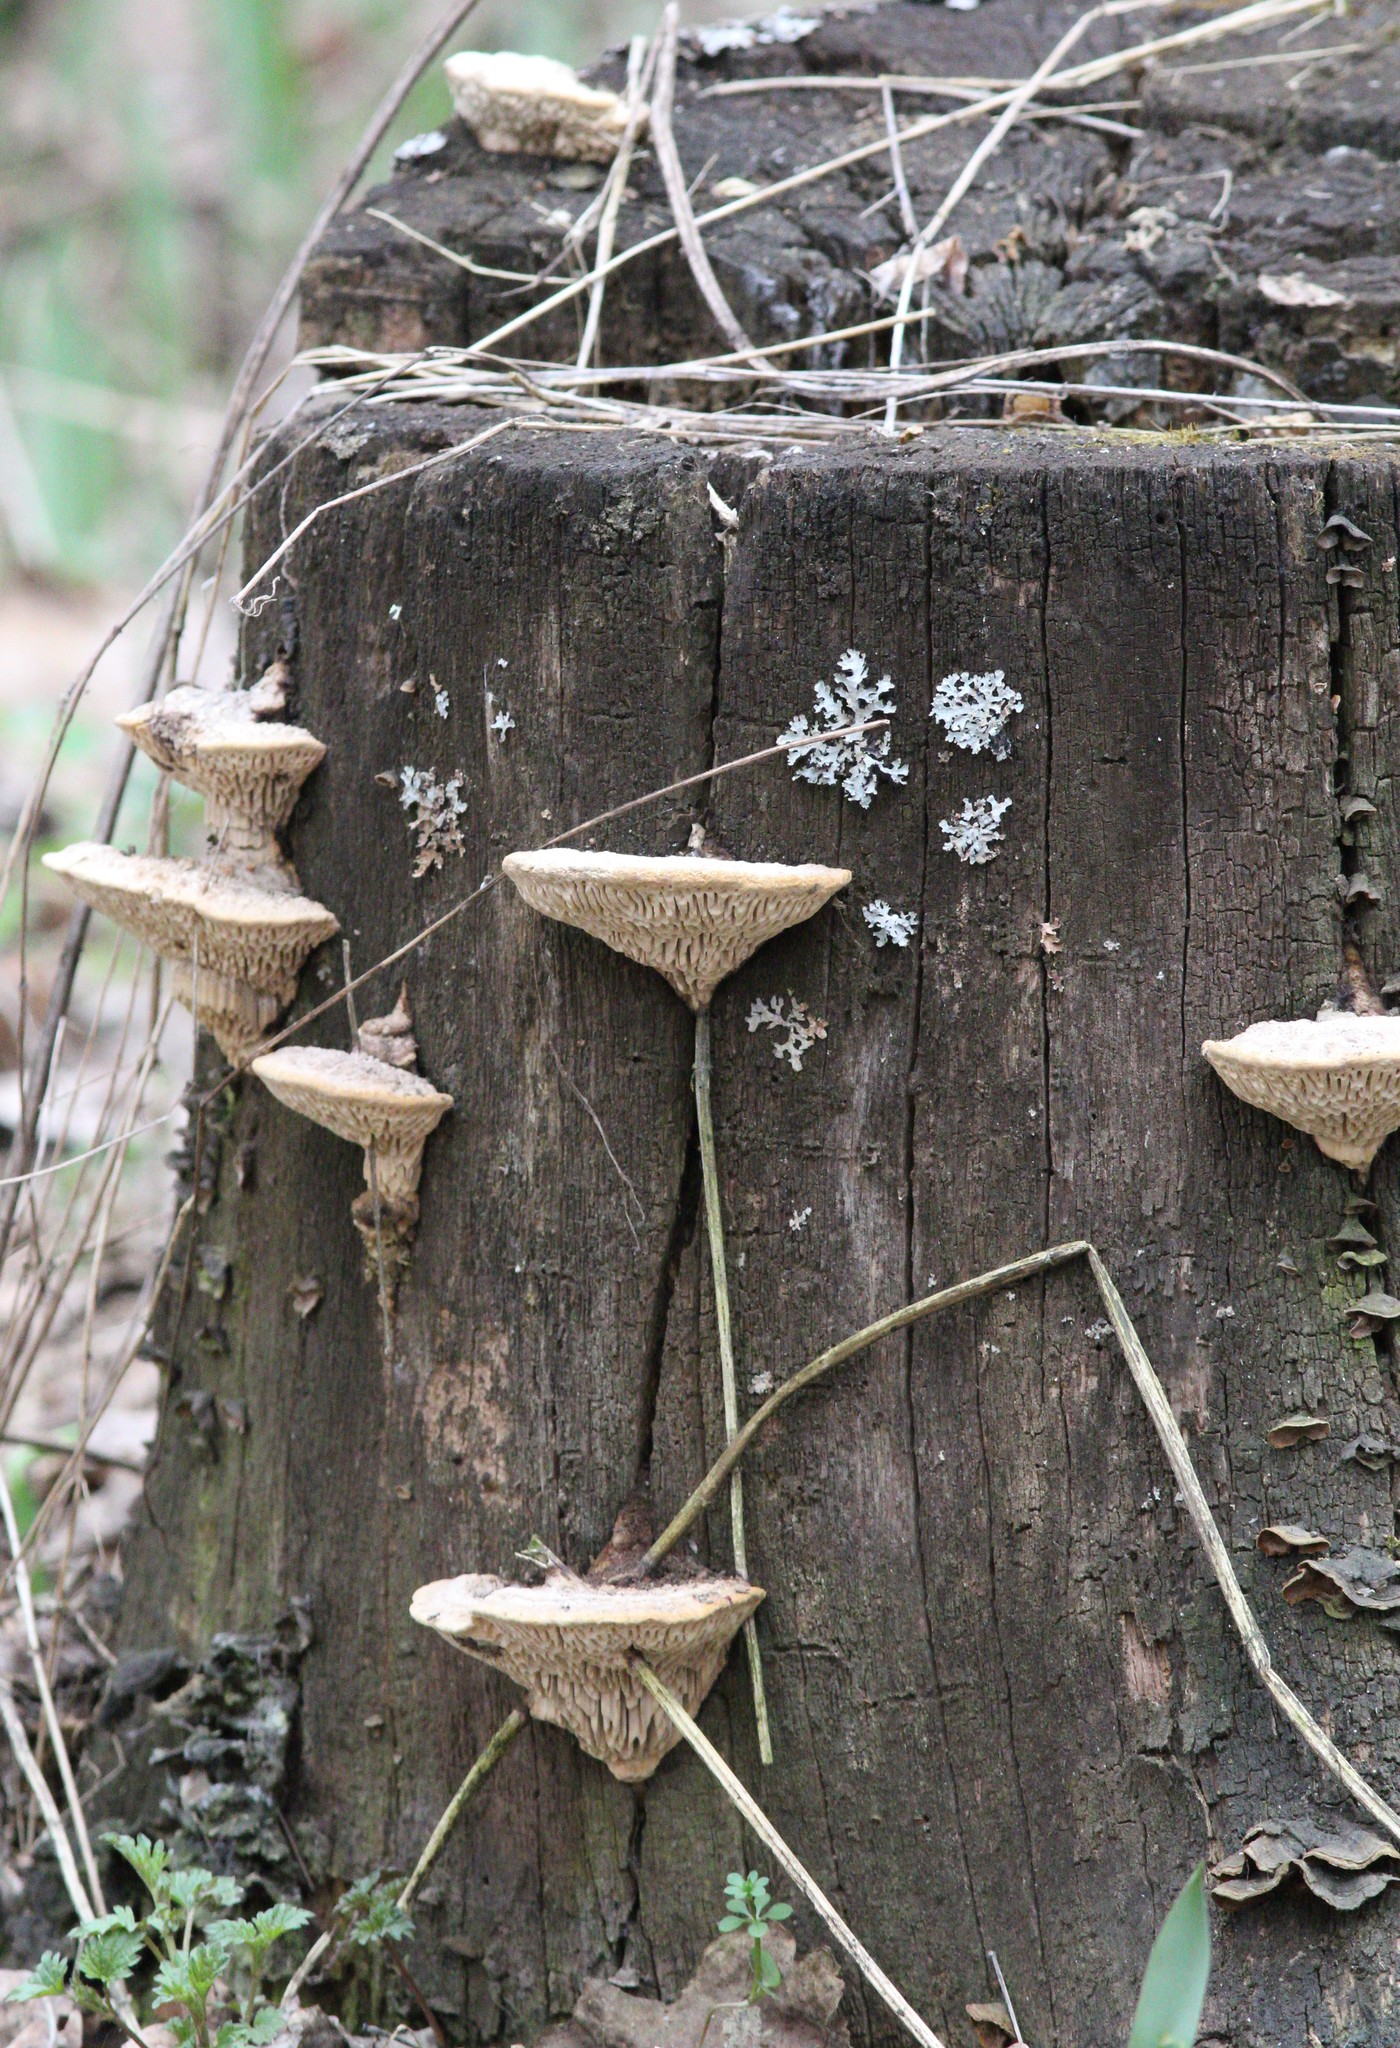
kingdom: Fungi
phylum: Basidiomycota
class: Agaricomycetes
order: Polyporales
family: Fomitopsidaceae
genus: Fomitopsis
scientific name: Fomitopsis
